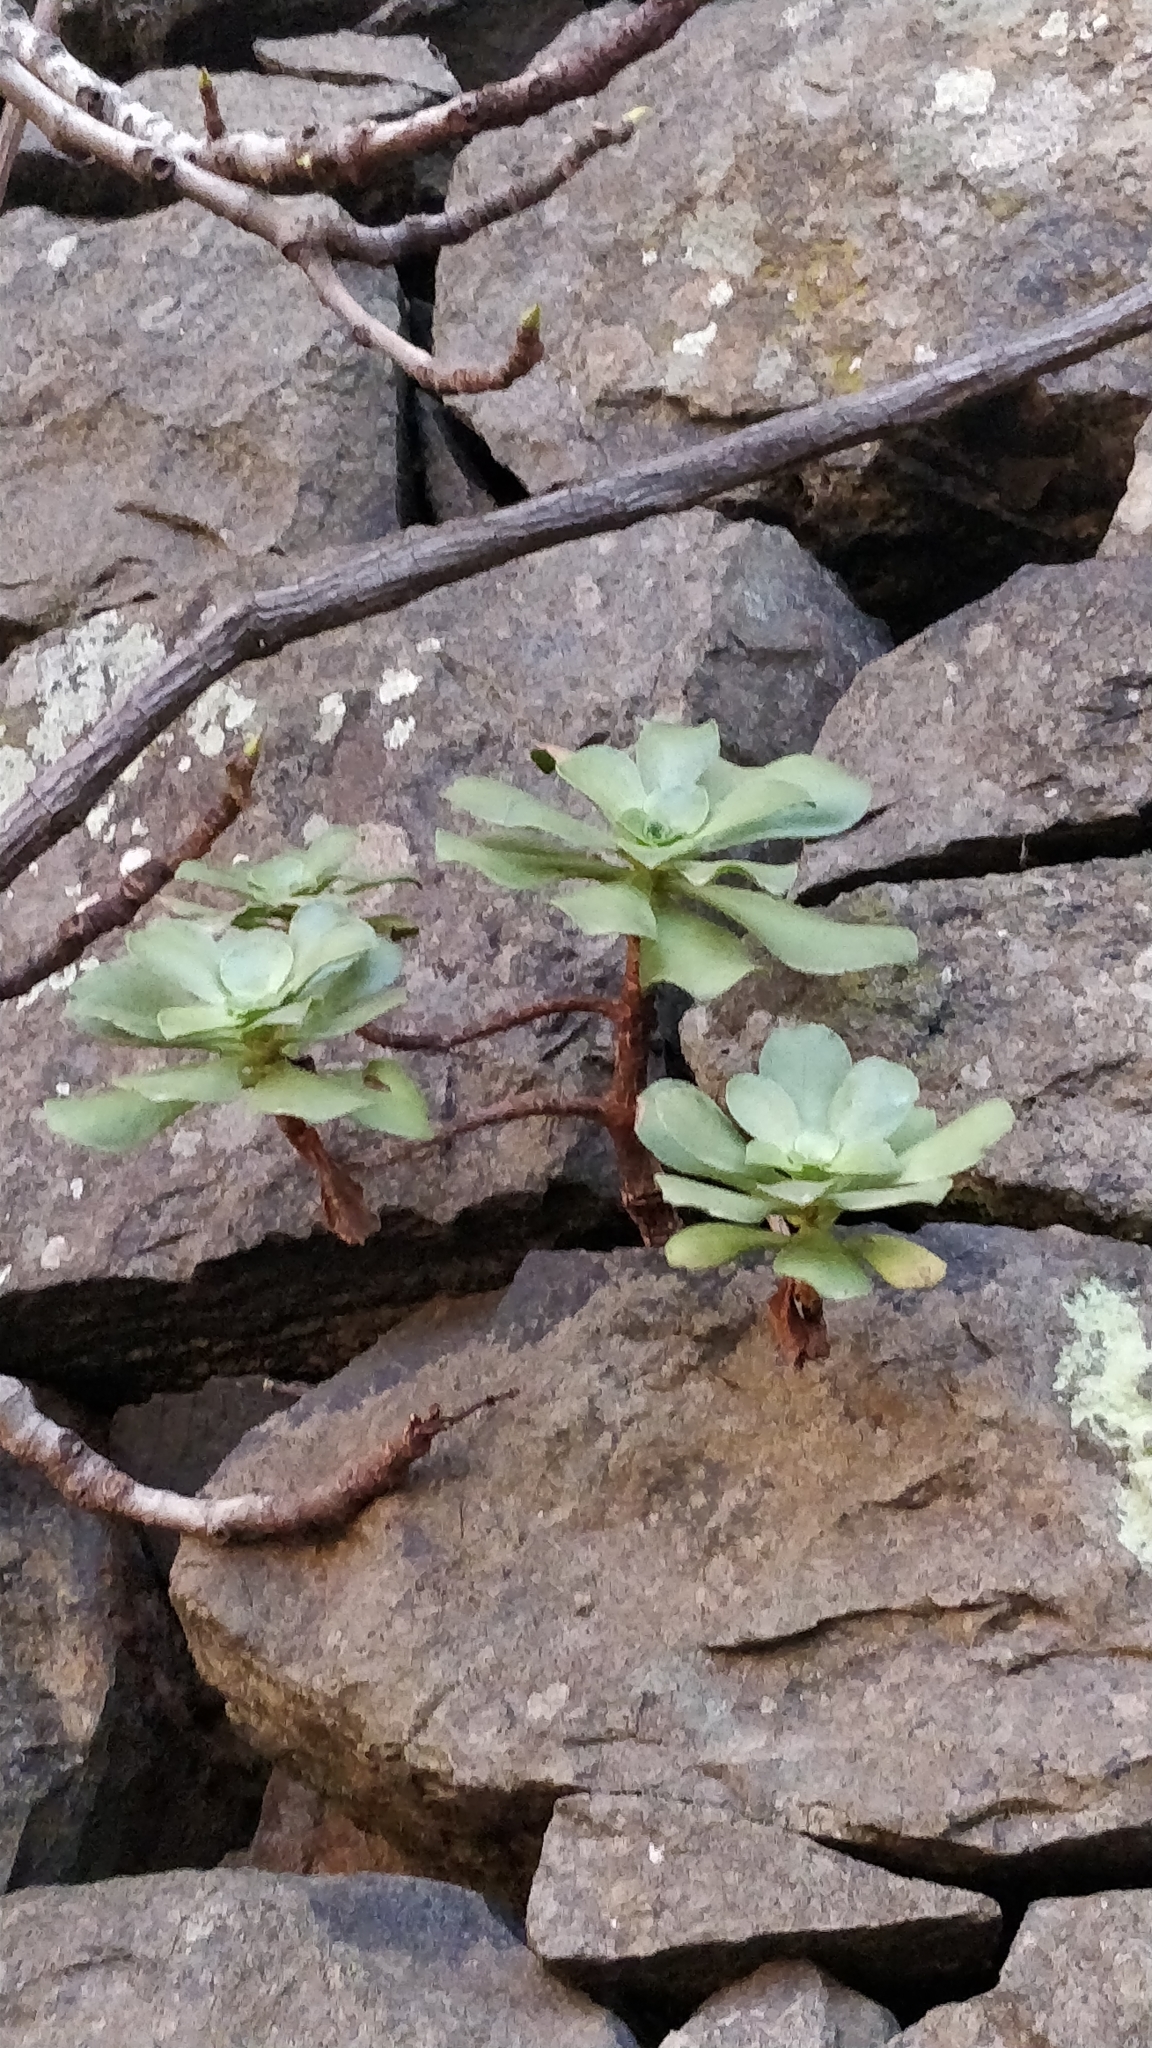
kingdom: Plantae
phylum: Tracheophyta
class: Magnoliopsida
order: Saxifragales
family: Crassulaceae
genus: Aeonium
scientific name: Aeonium glutinosum
